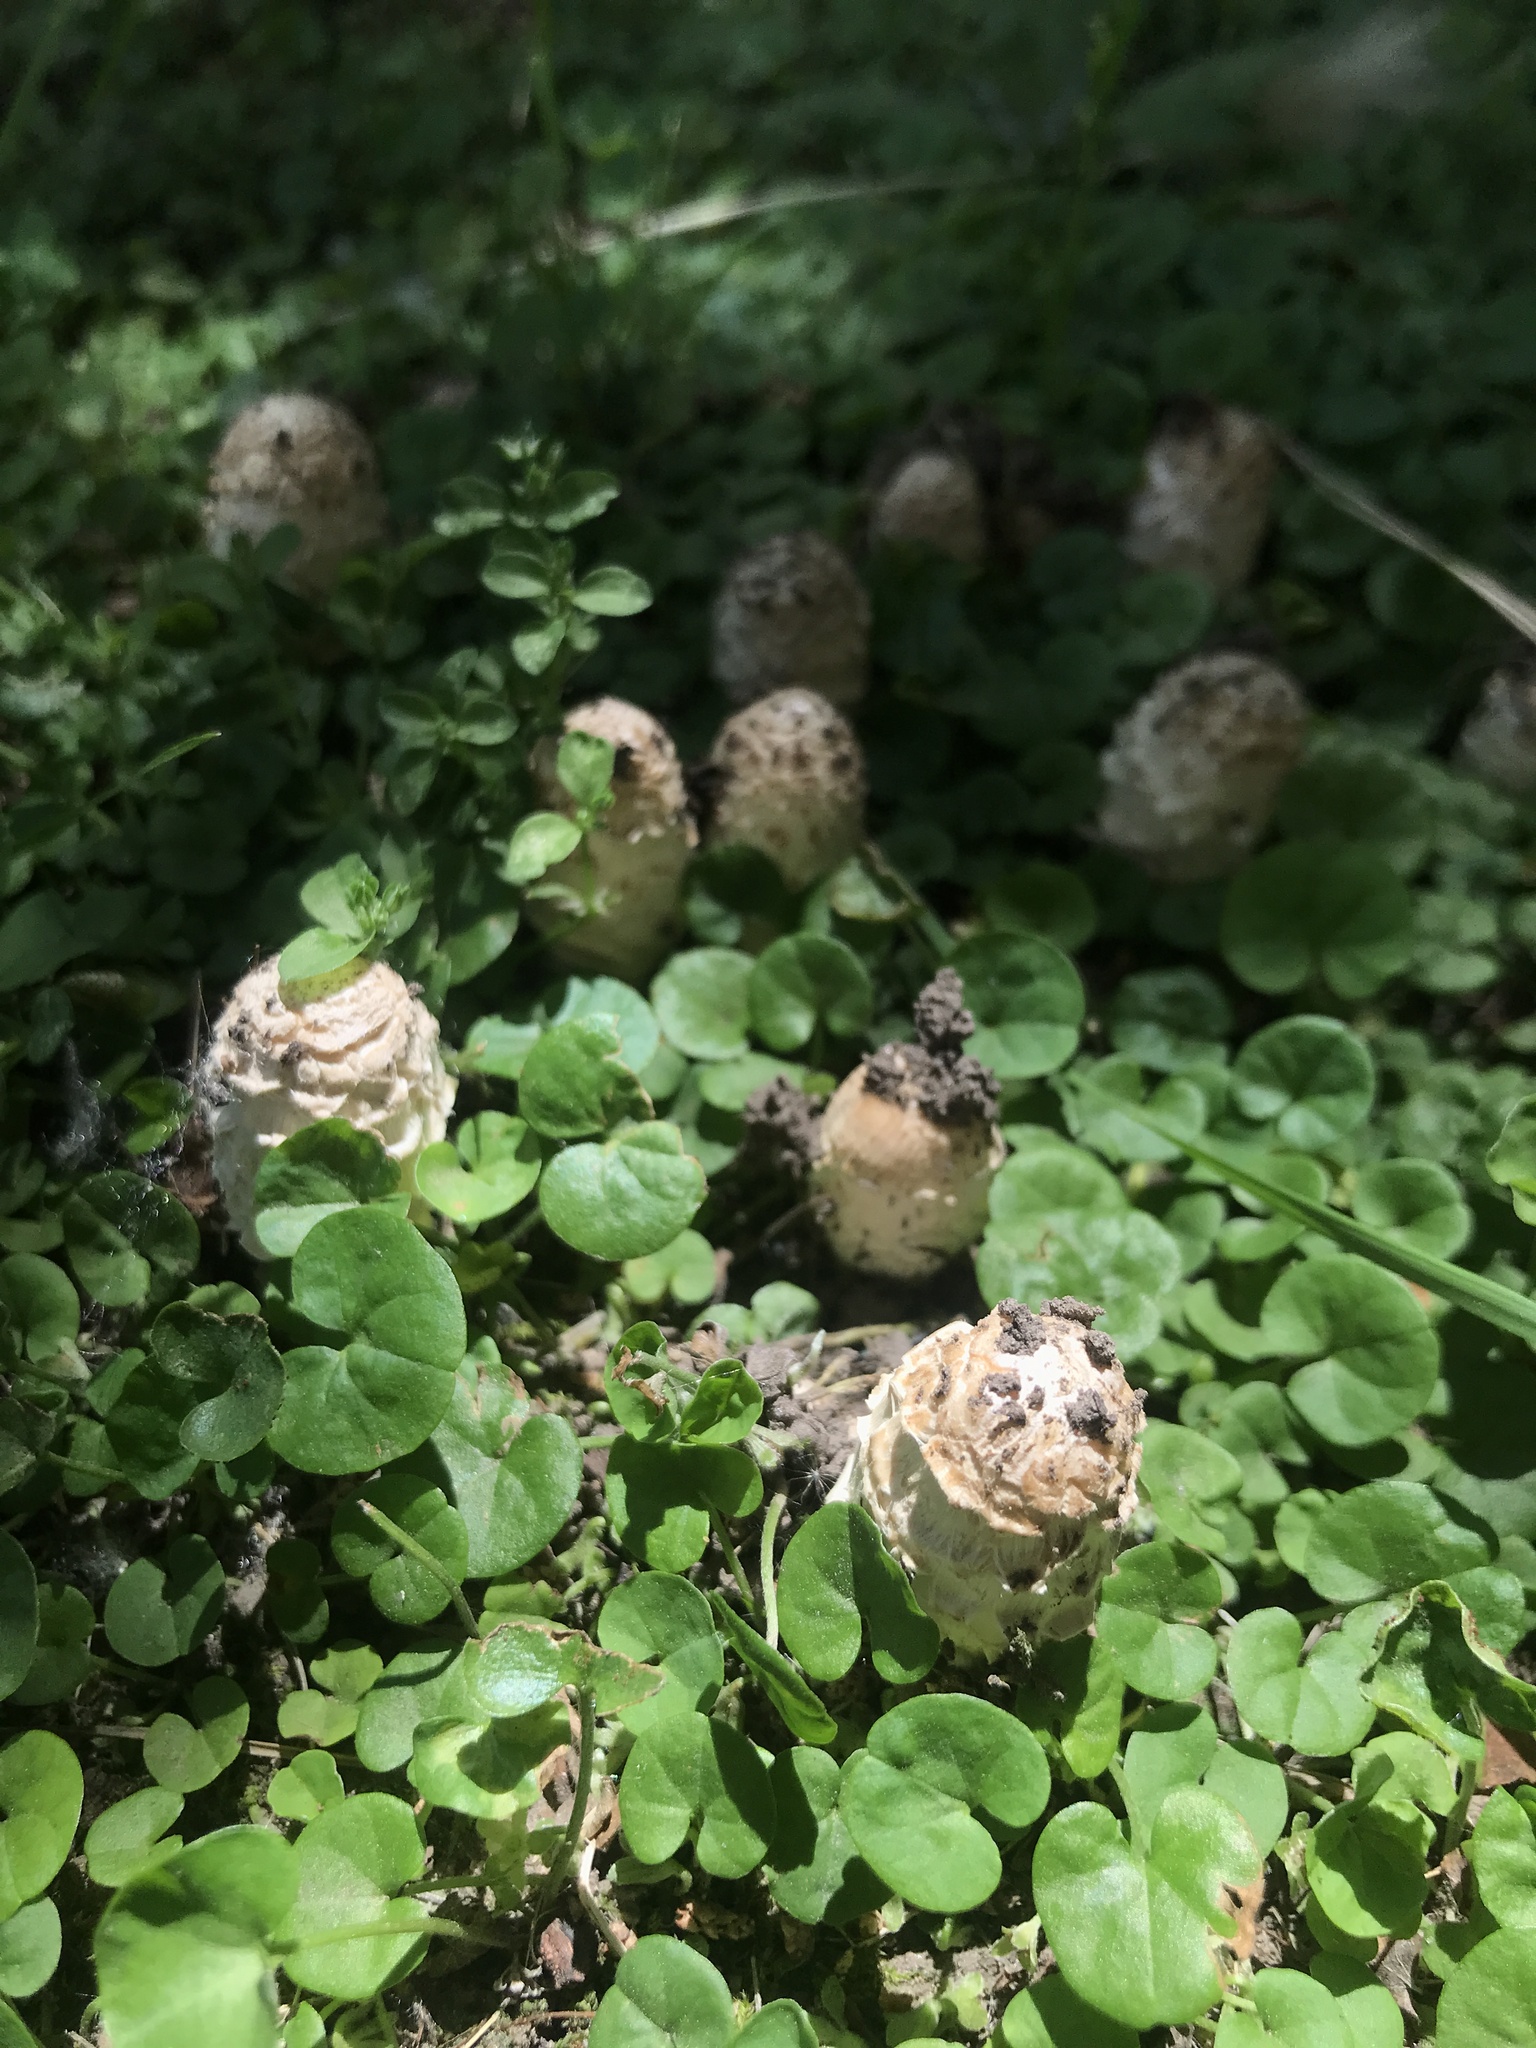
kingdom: Fungi
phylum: Basidiomycota
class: Agaricomycetes
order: Agaricales
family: Agaricaceae
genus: Coprinus
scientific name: Coprinus comatus
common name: Lawyer's wig
